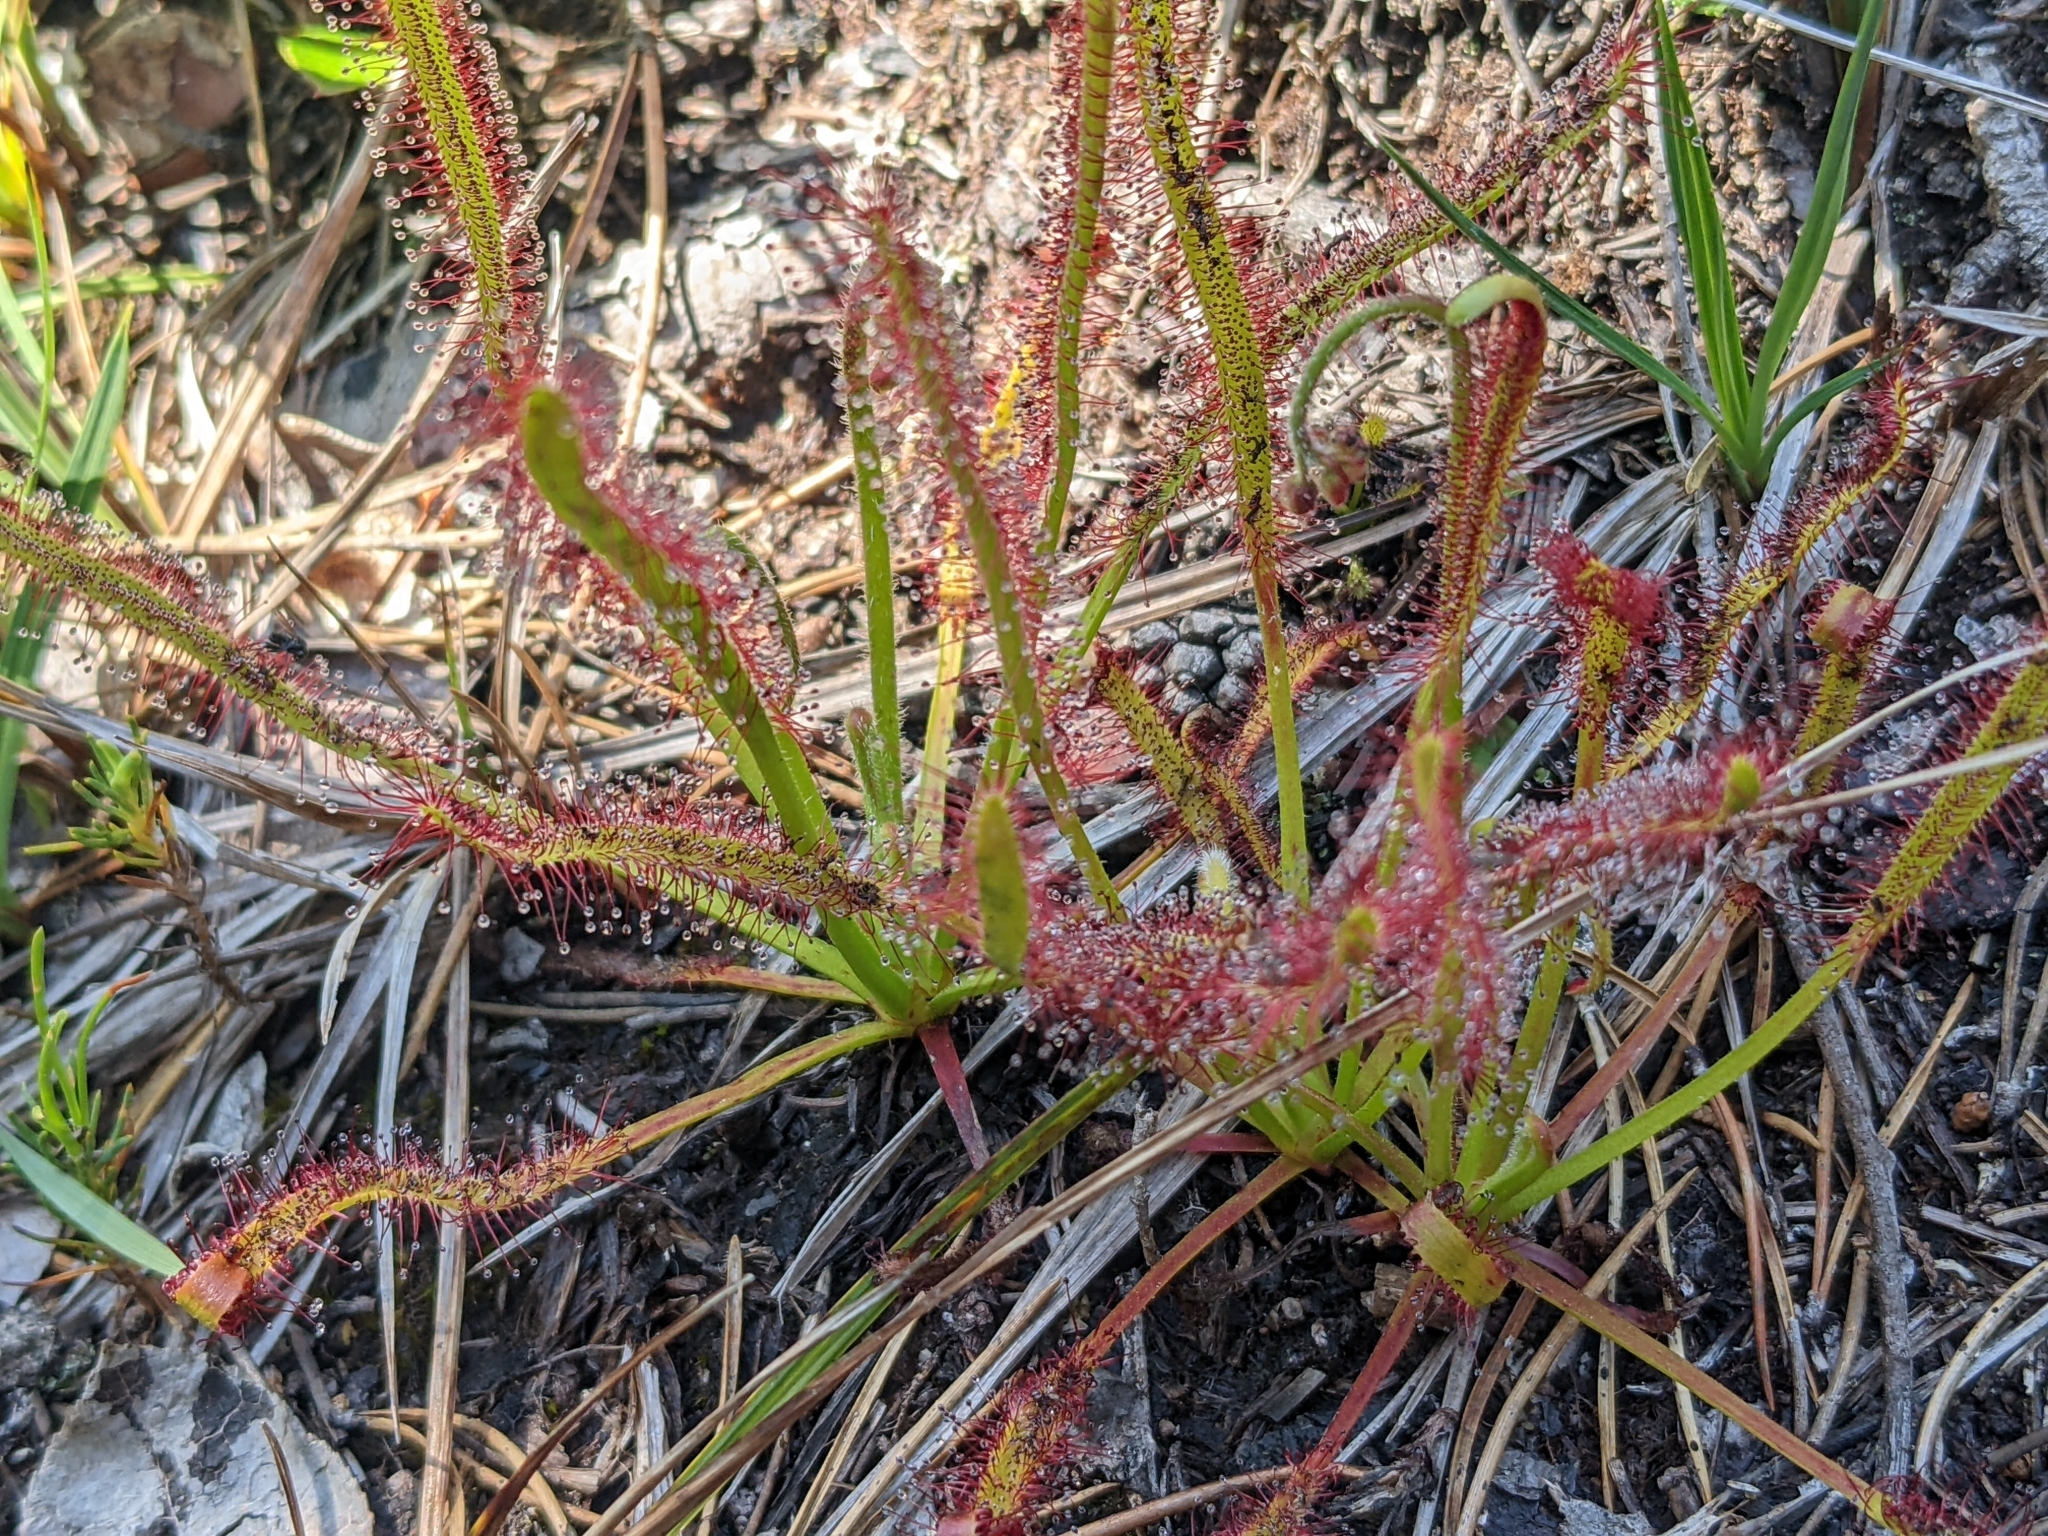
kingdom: Plantae
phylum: Tracheophyta
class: Magnoliopsida
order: Caryophyllales
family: Droseraceae
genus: Drosera
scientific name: Drosera capensis
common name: Cape sundew
